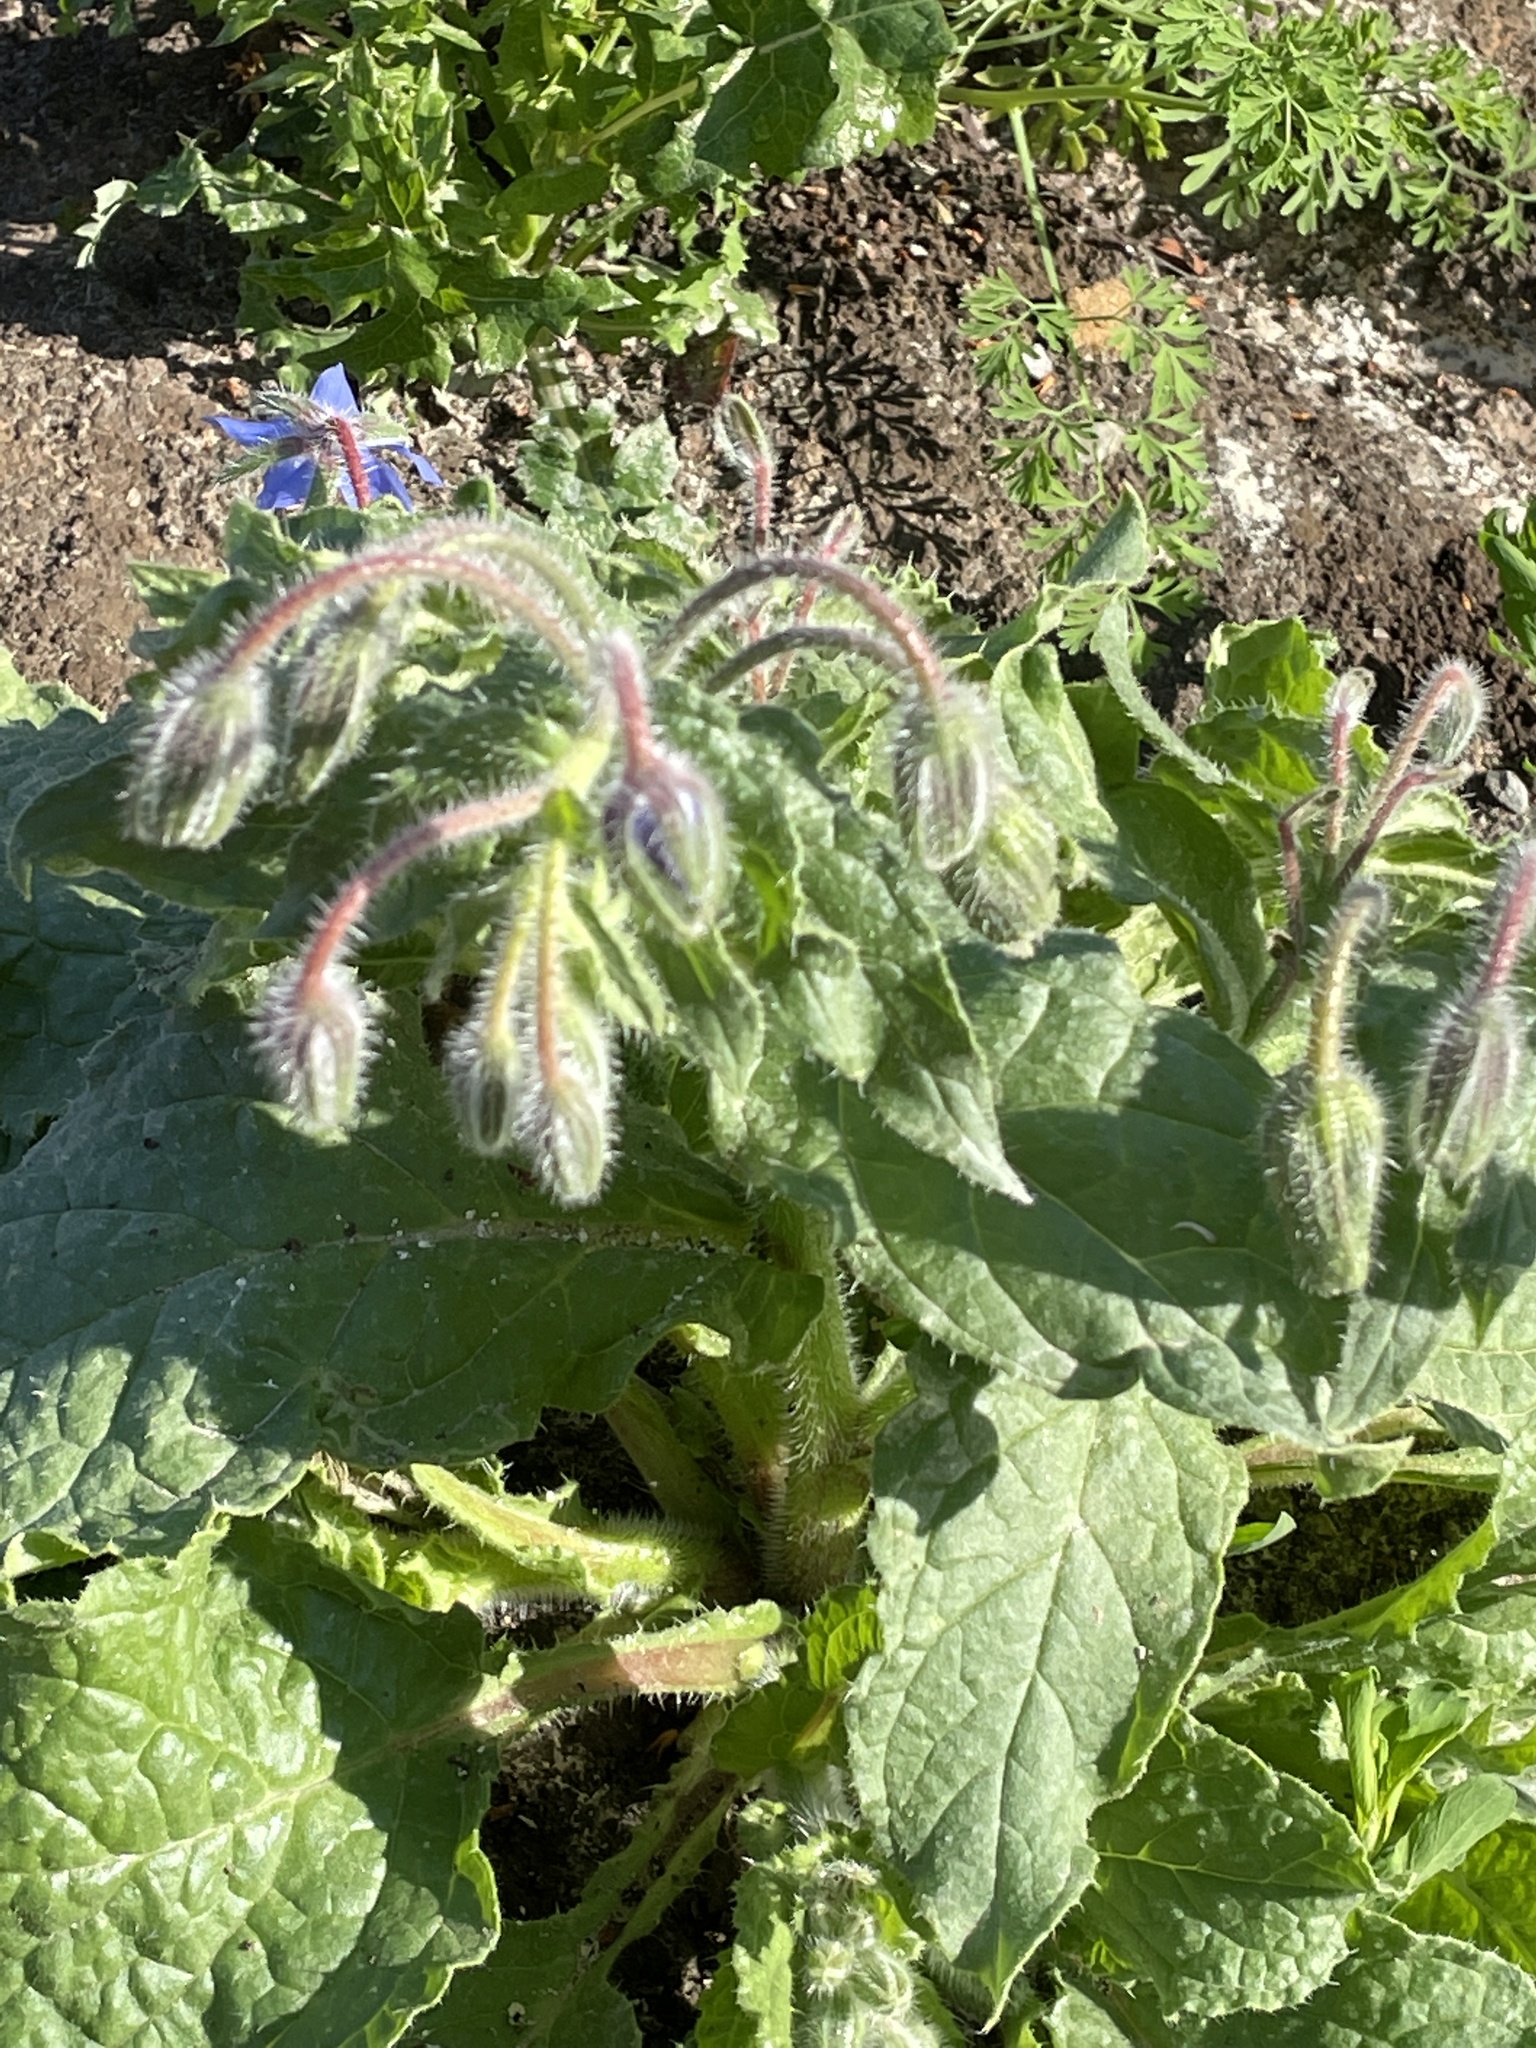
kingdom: Plantae
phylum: Tracheophyta
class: Magnoliopsida
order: Boraginales
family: Boraginaceae
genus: Borago
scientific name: Borago officinalis
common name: Borage
